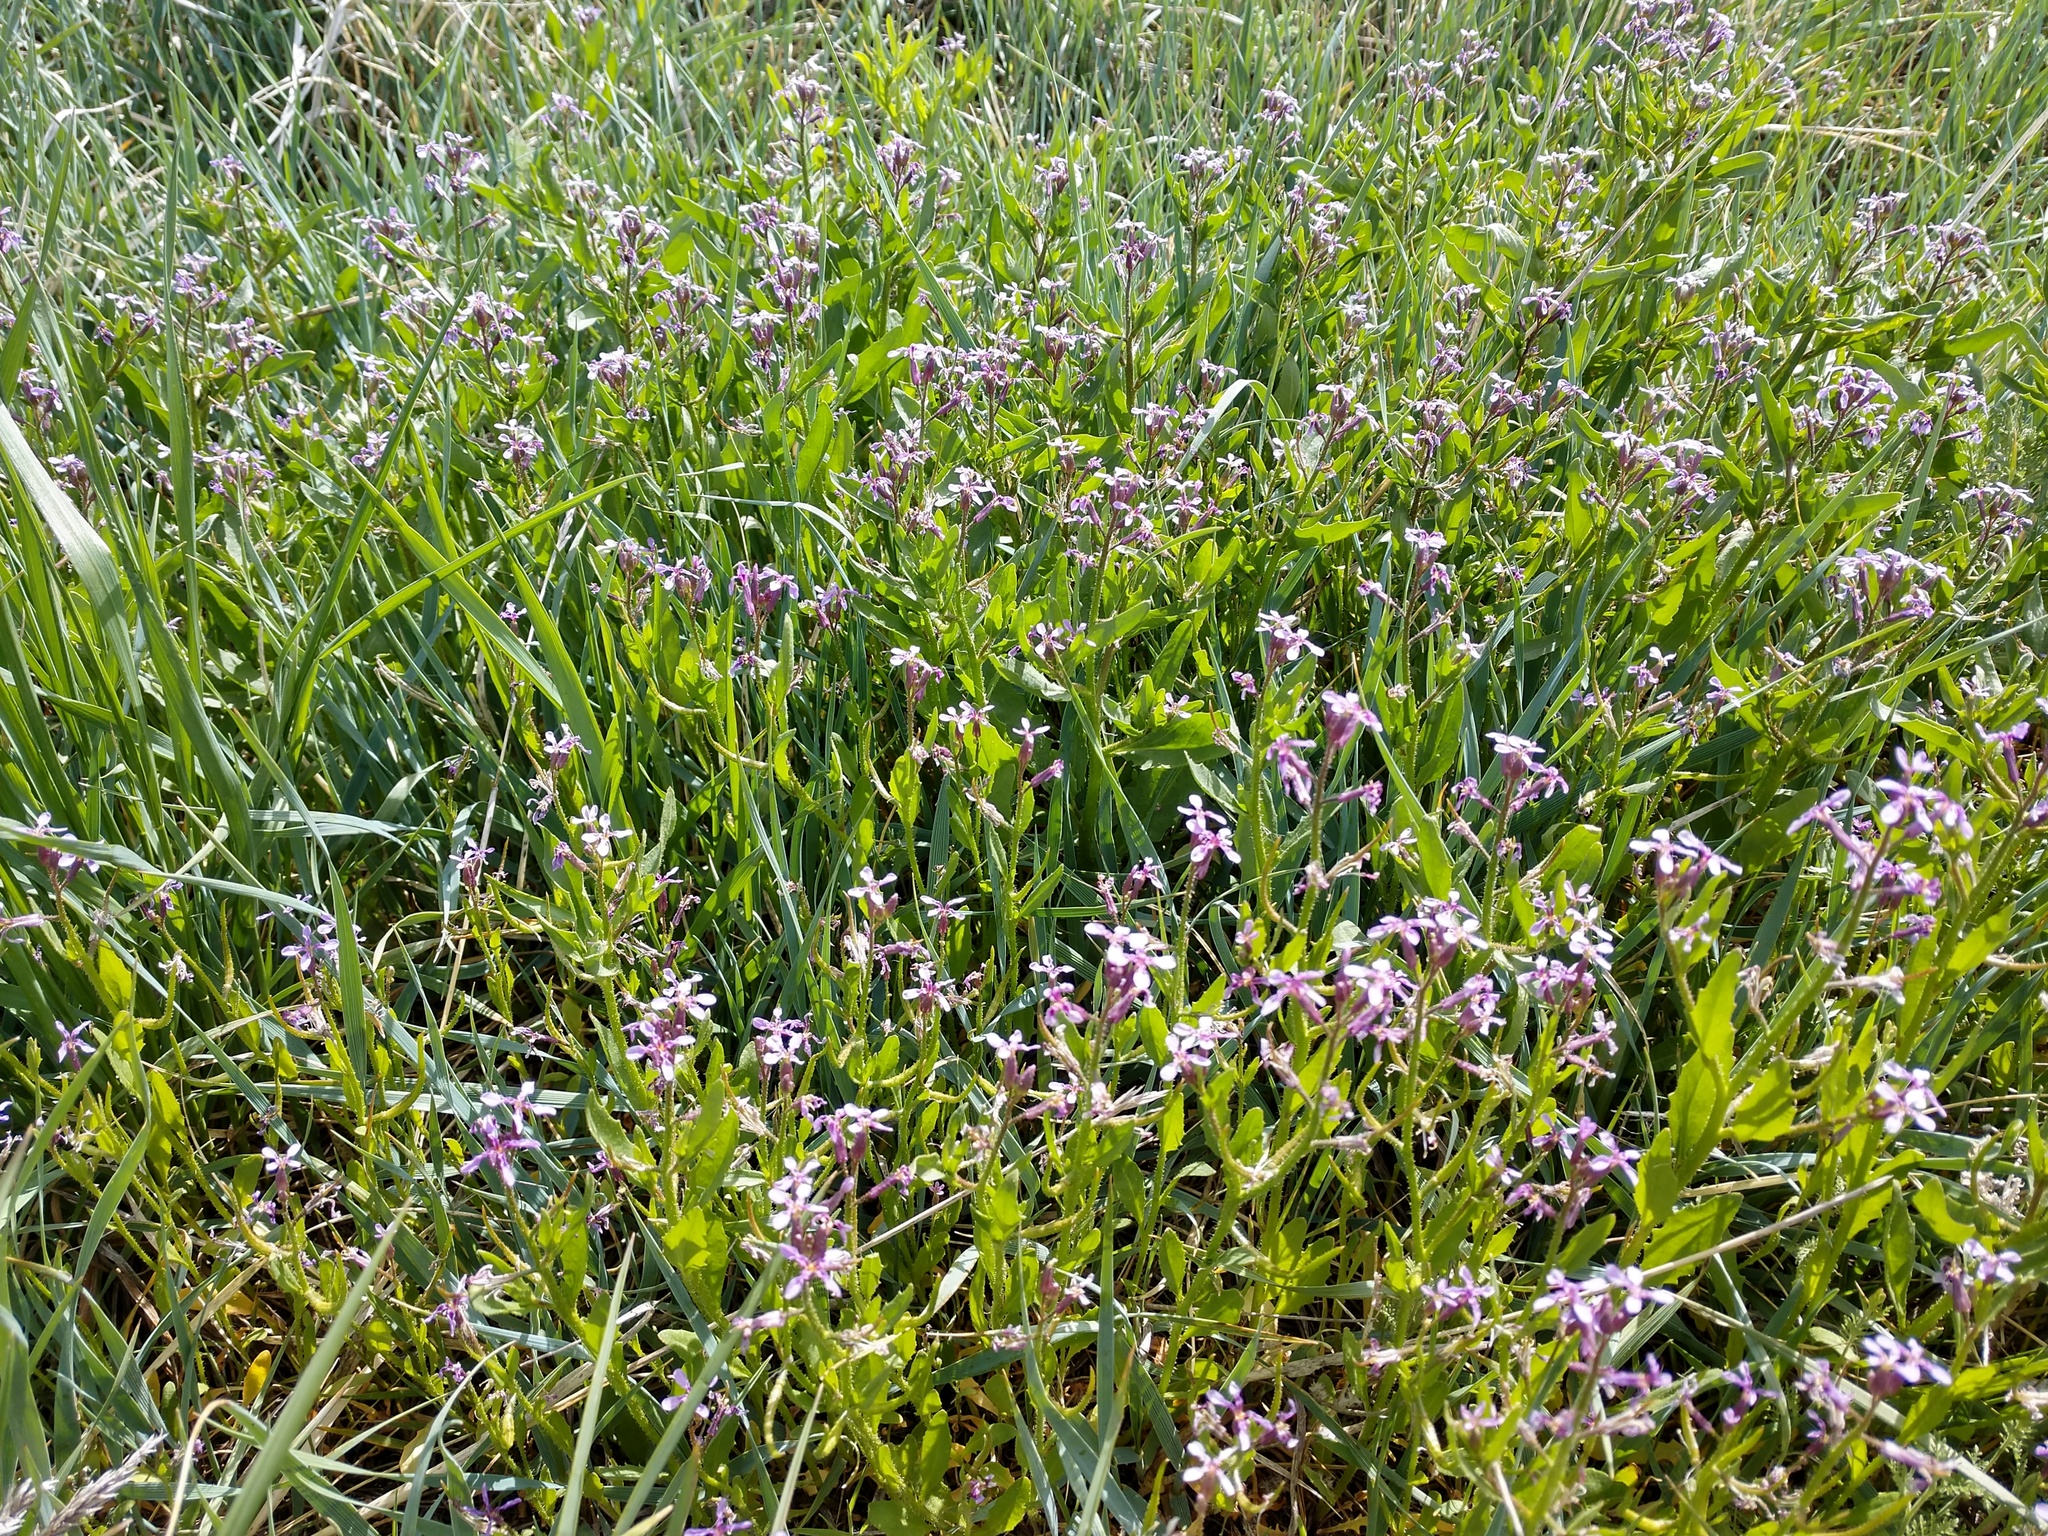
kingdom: Plantae
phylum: Tracheophyta
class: Magnoliopsida
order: Brassicales
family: Brassicaceae
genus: Chorispora
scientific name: Chorispora tenella
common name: Crossflower
